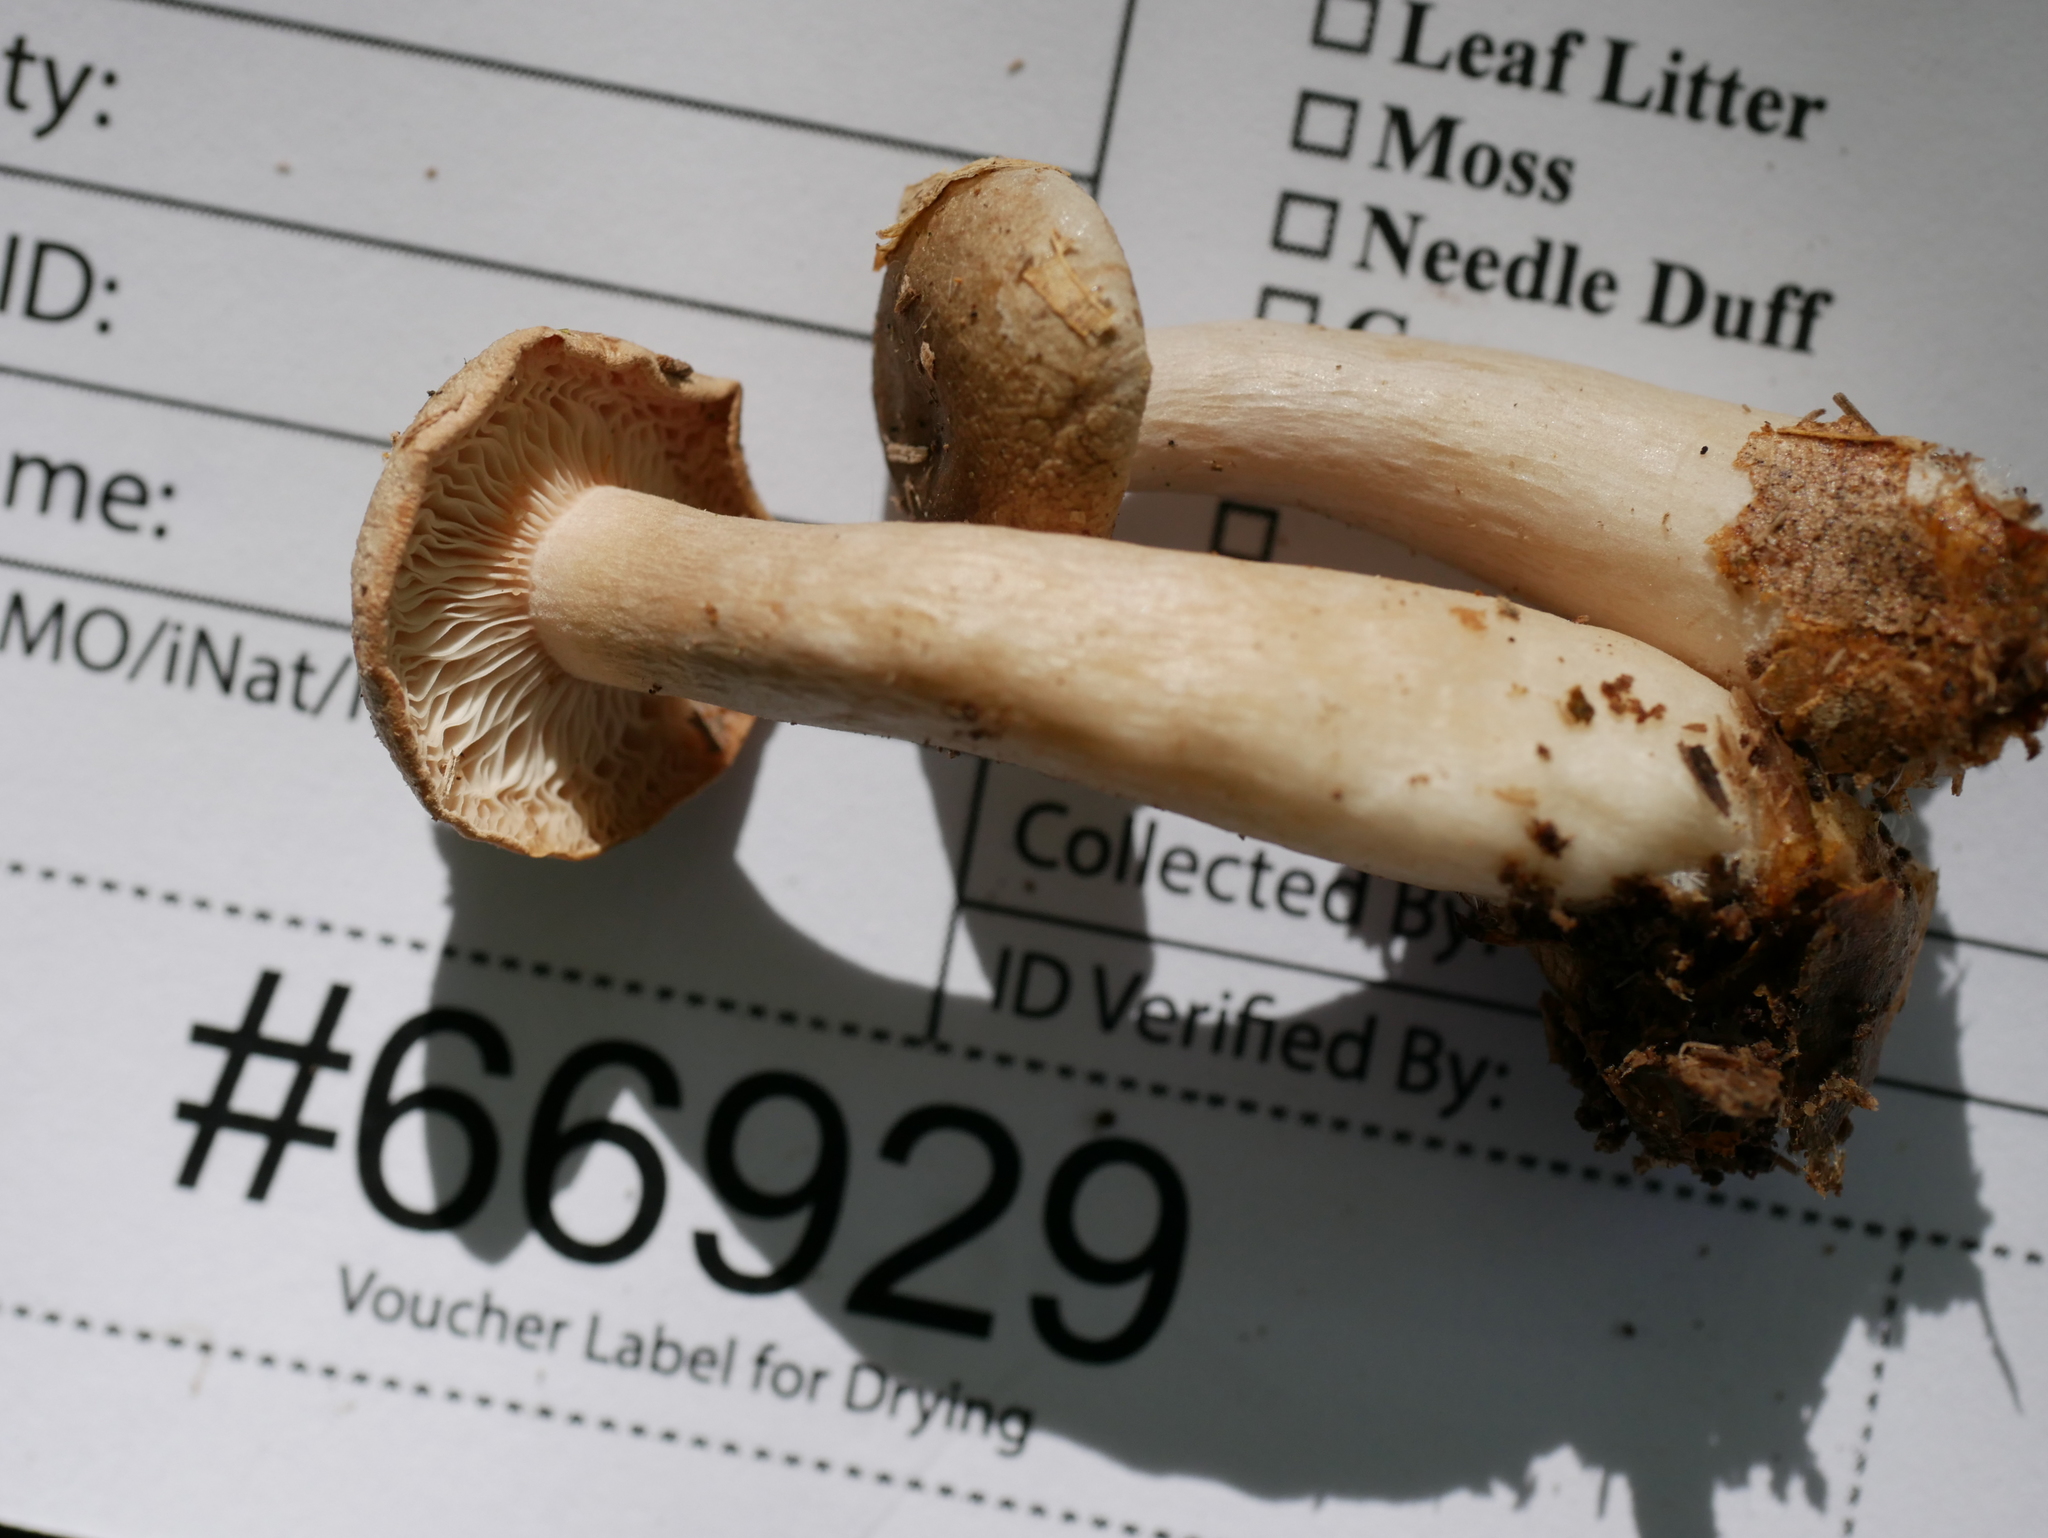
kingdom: Fungi
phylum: Basidiomycota
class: Agaricomycetes
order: Russulales
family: Russulaceae
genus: Lactarius
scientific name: Lactarius cinereus
